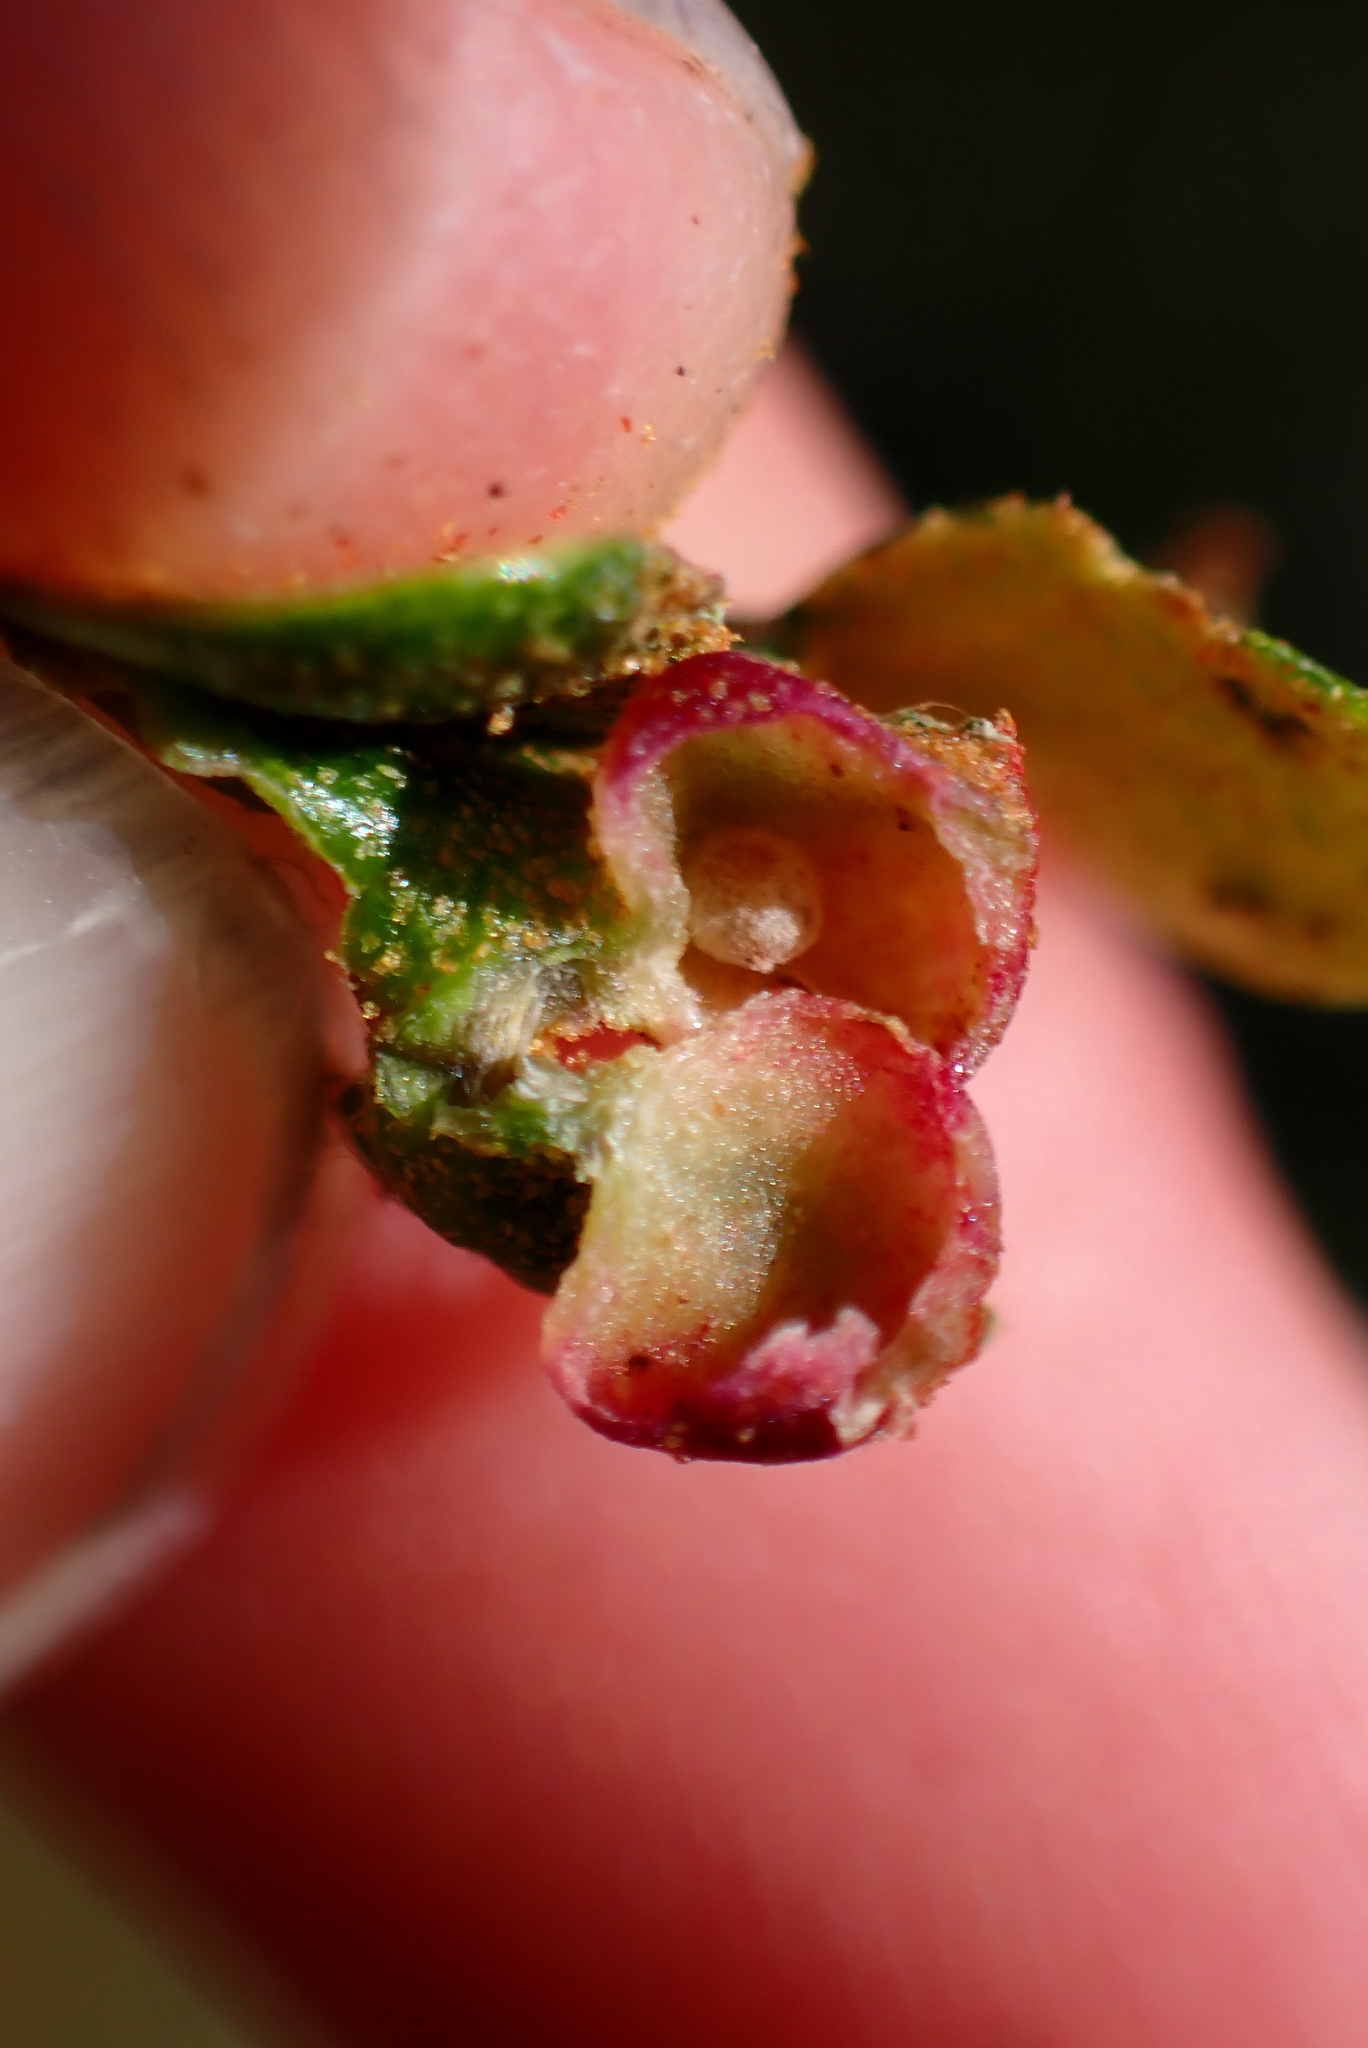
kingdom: Animalia
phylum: Arthropoda
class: Insecta
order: Hymenoptera
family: Cynipidae
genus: Dryocosmus
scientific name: Dryocosmus juliae
